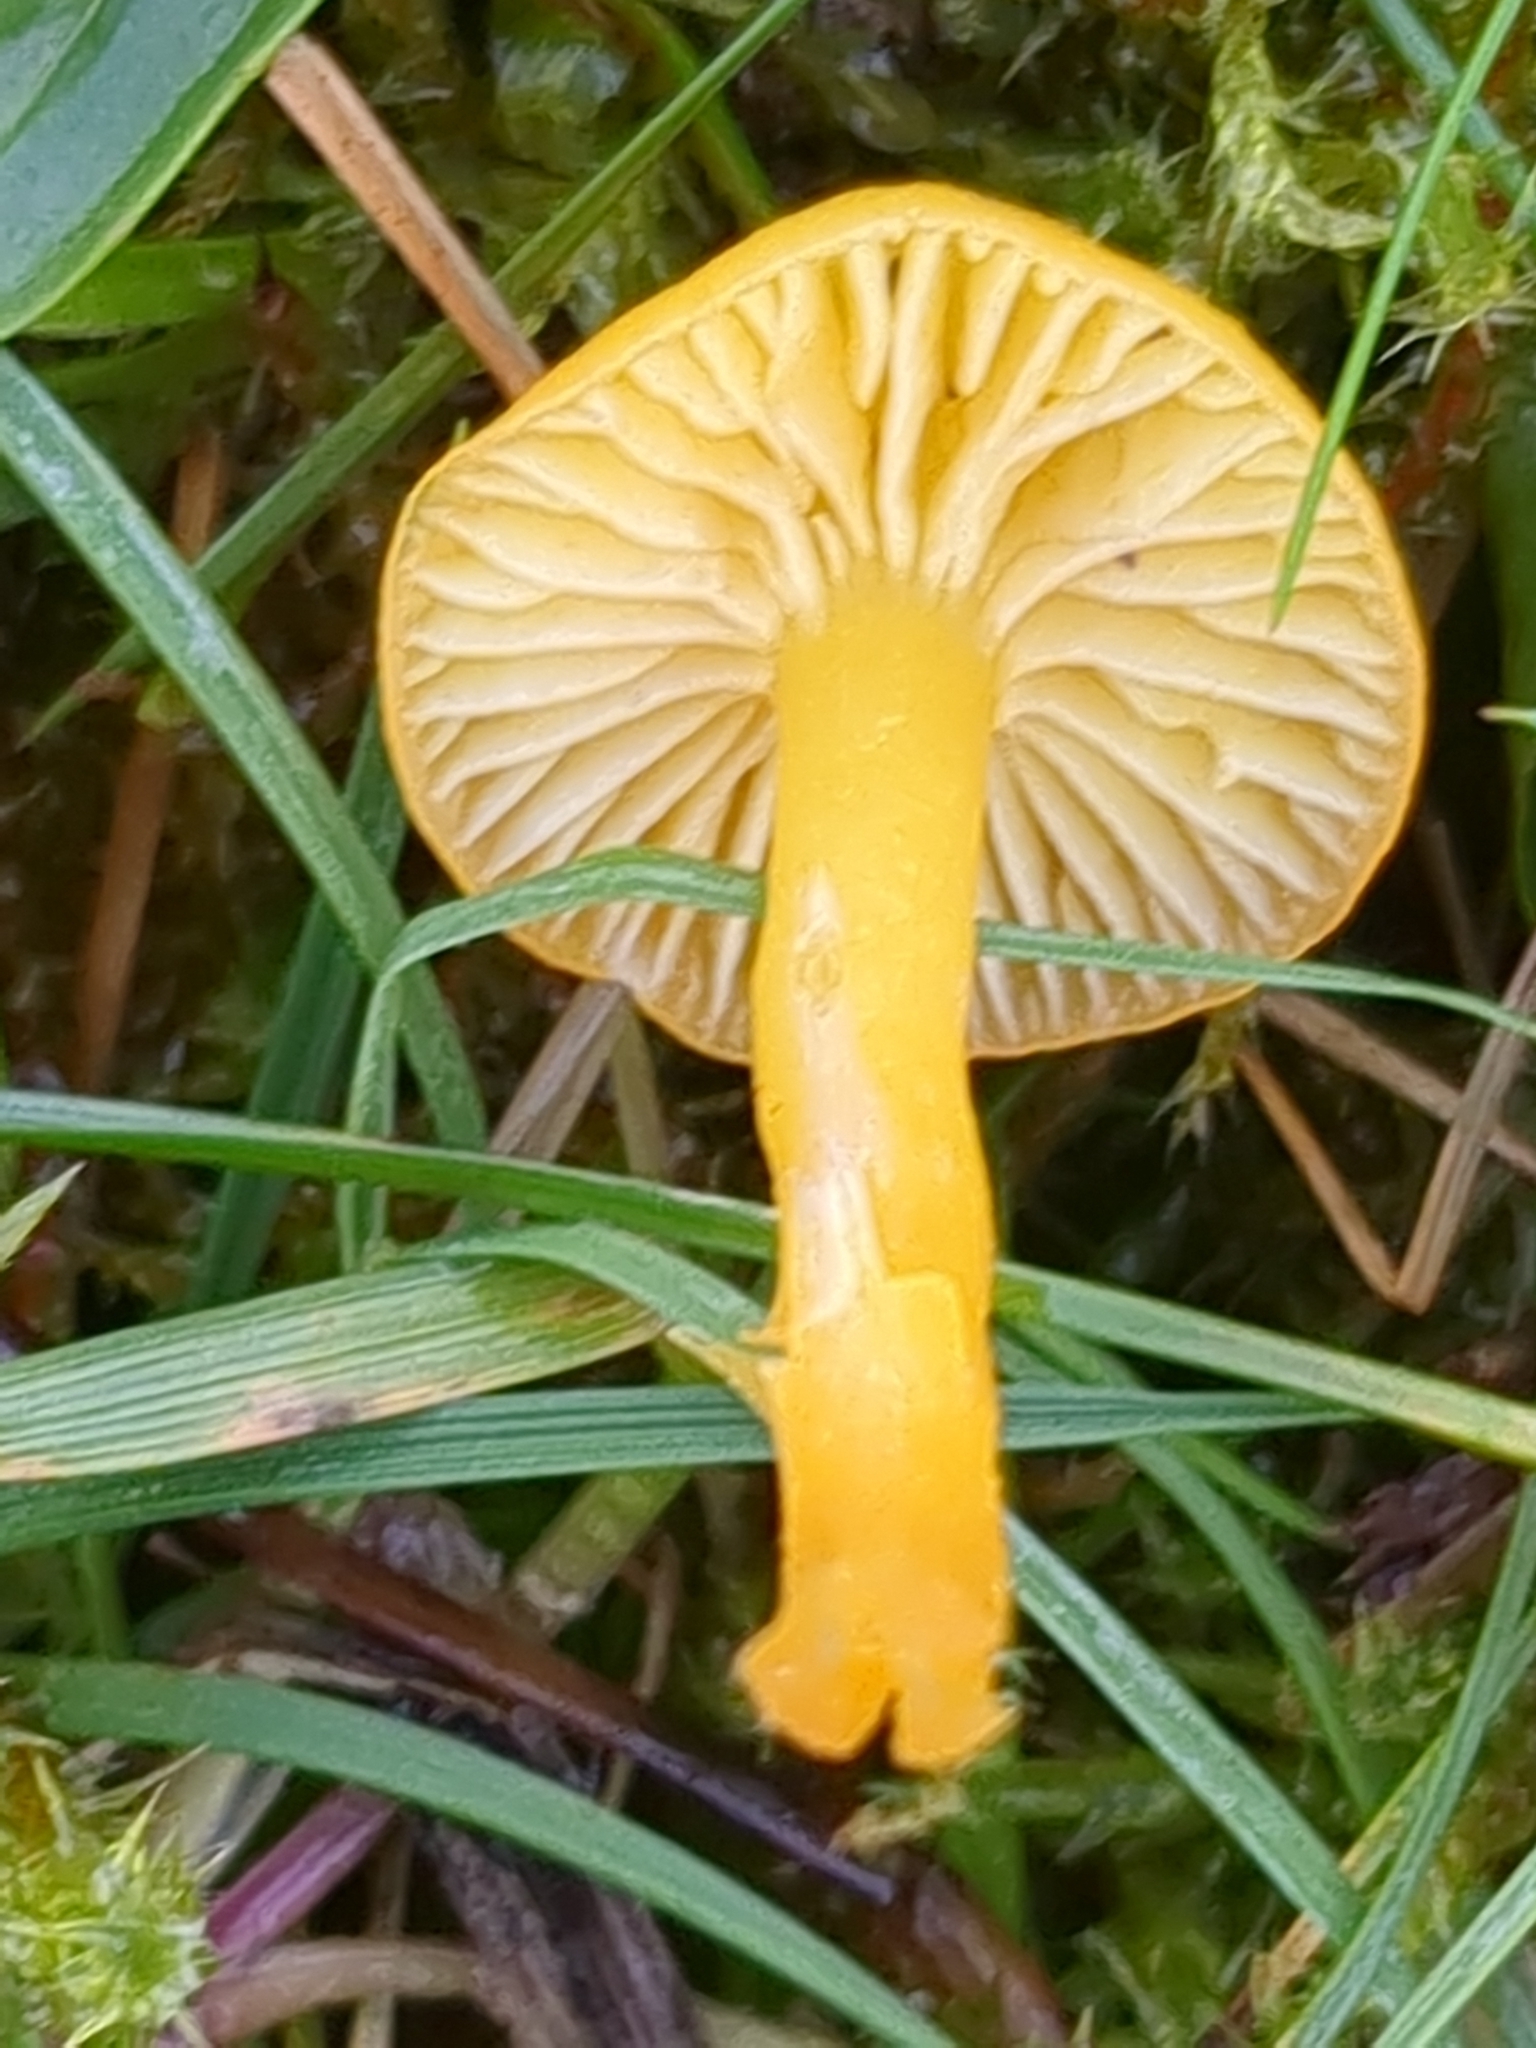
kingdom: Fungi
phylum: Basidiomycota
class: Agaricomycetes
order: Agaricales
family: Hygrophoraceae
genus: Hygrocybe
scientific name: Hygrocybe ceracea
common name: Butter waxcap
